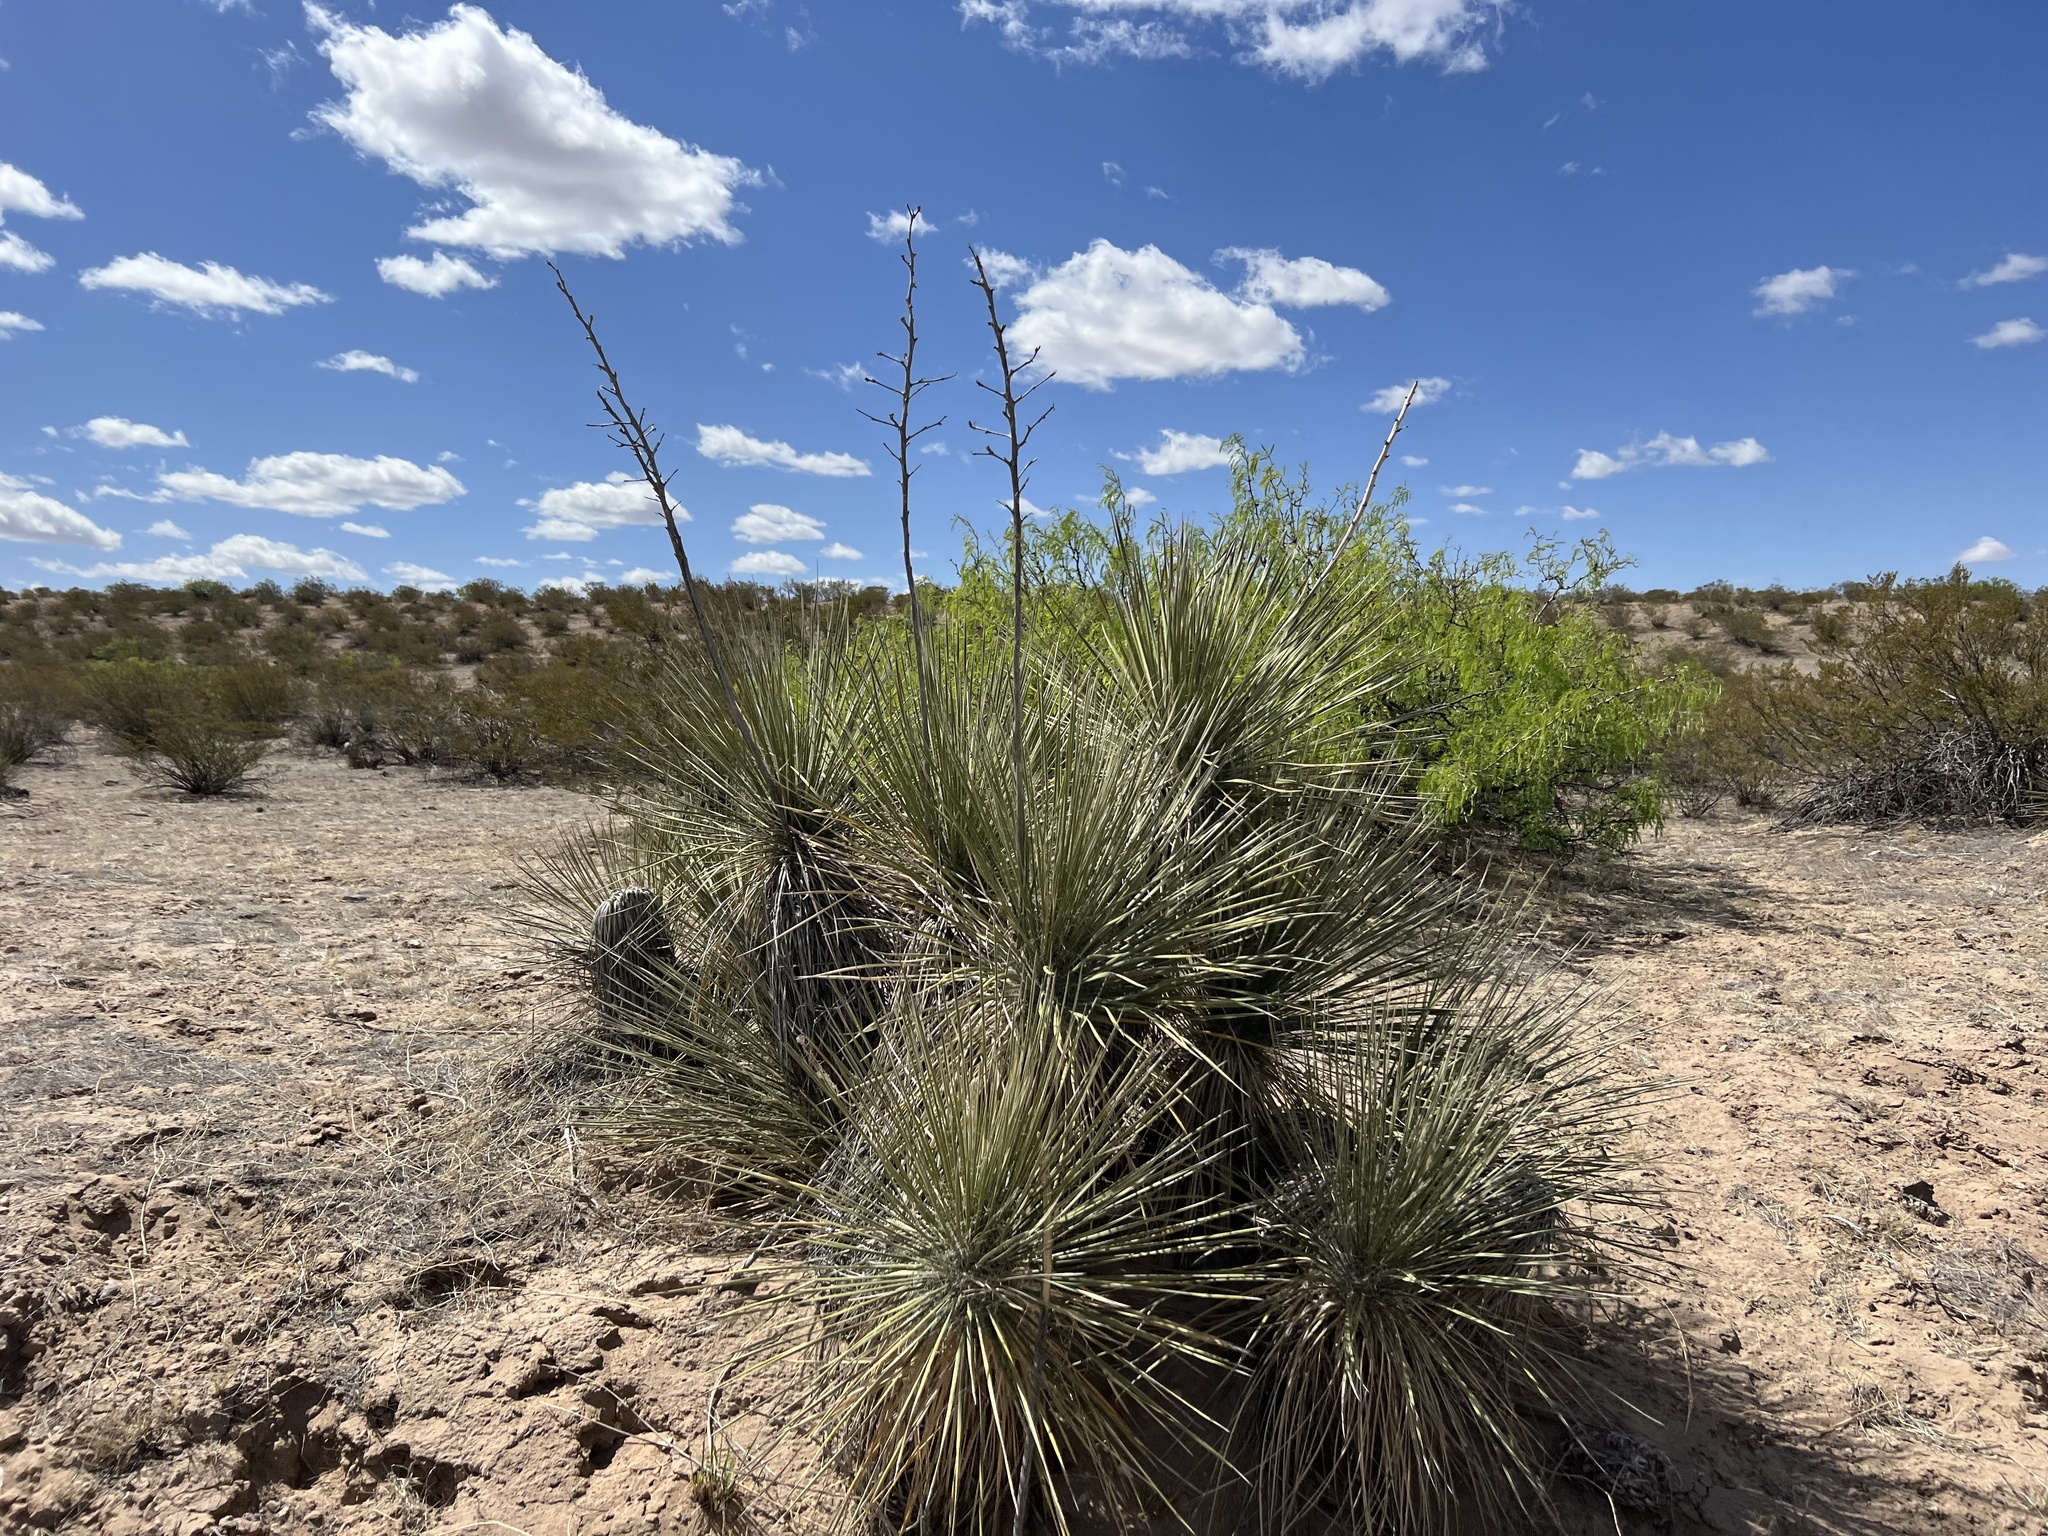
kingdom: Plantae
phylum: Tracheophyta
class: Liliopsida
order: Asparagales
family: Asparagaceae
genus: Yucca
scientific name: Yucca elata
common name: Palmella
